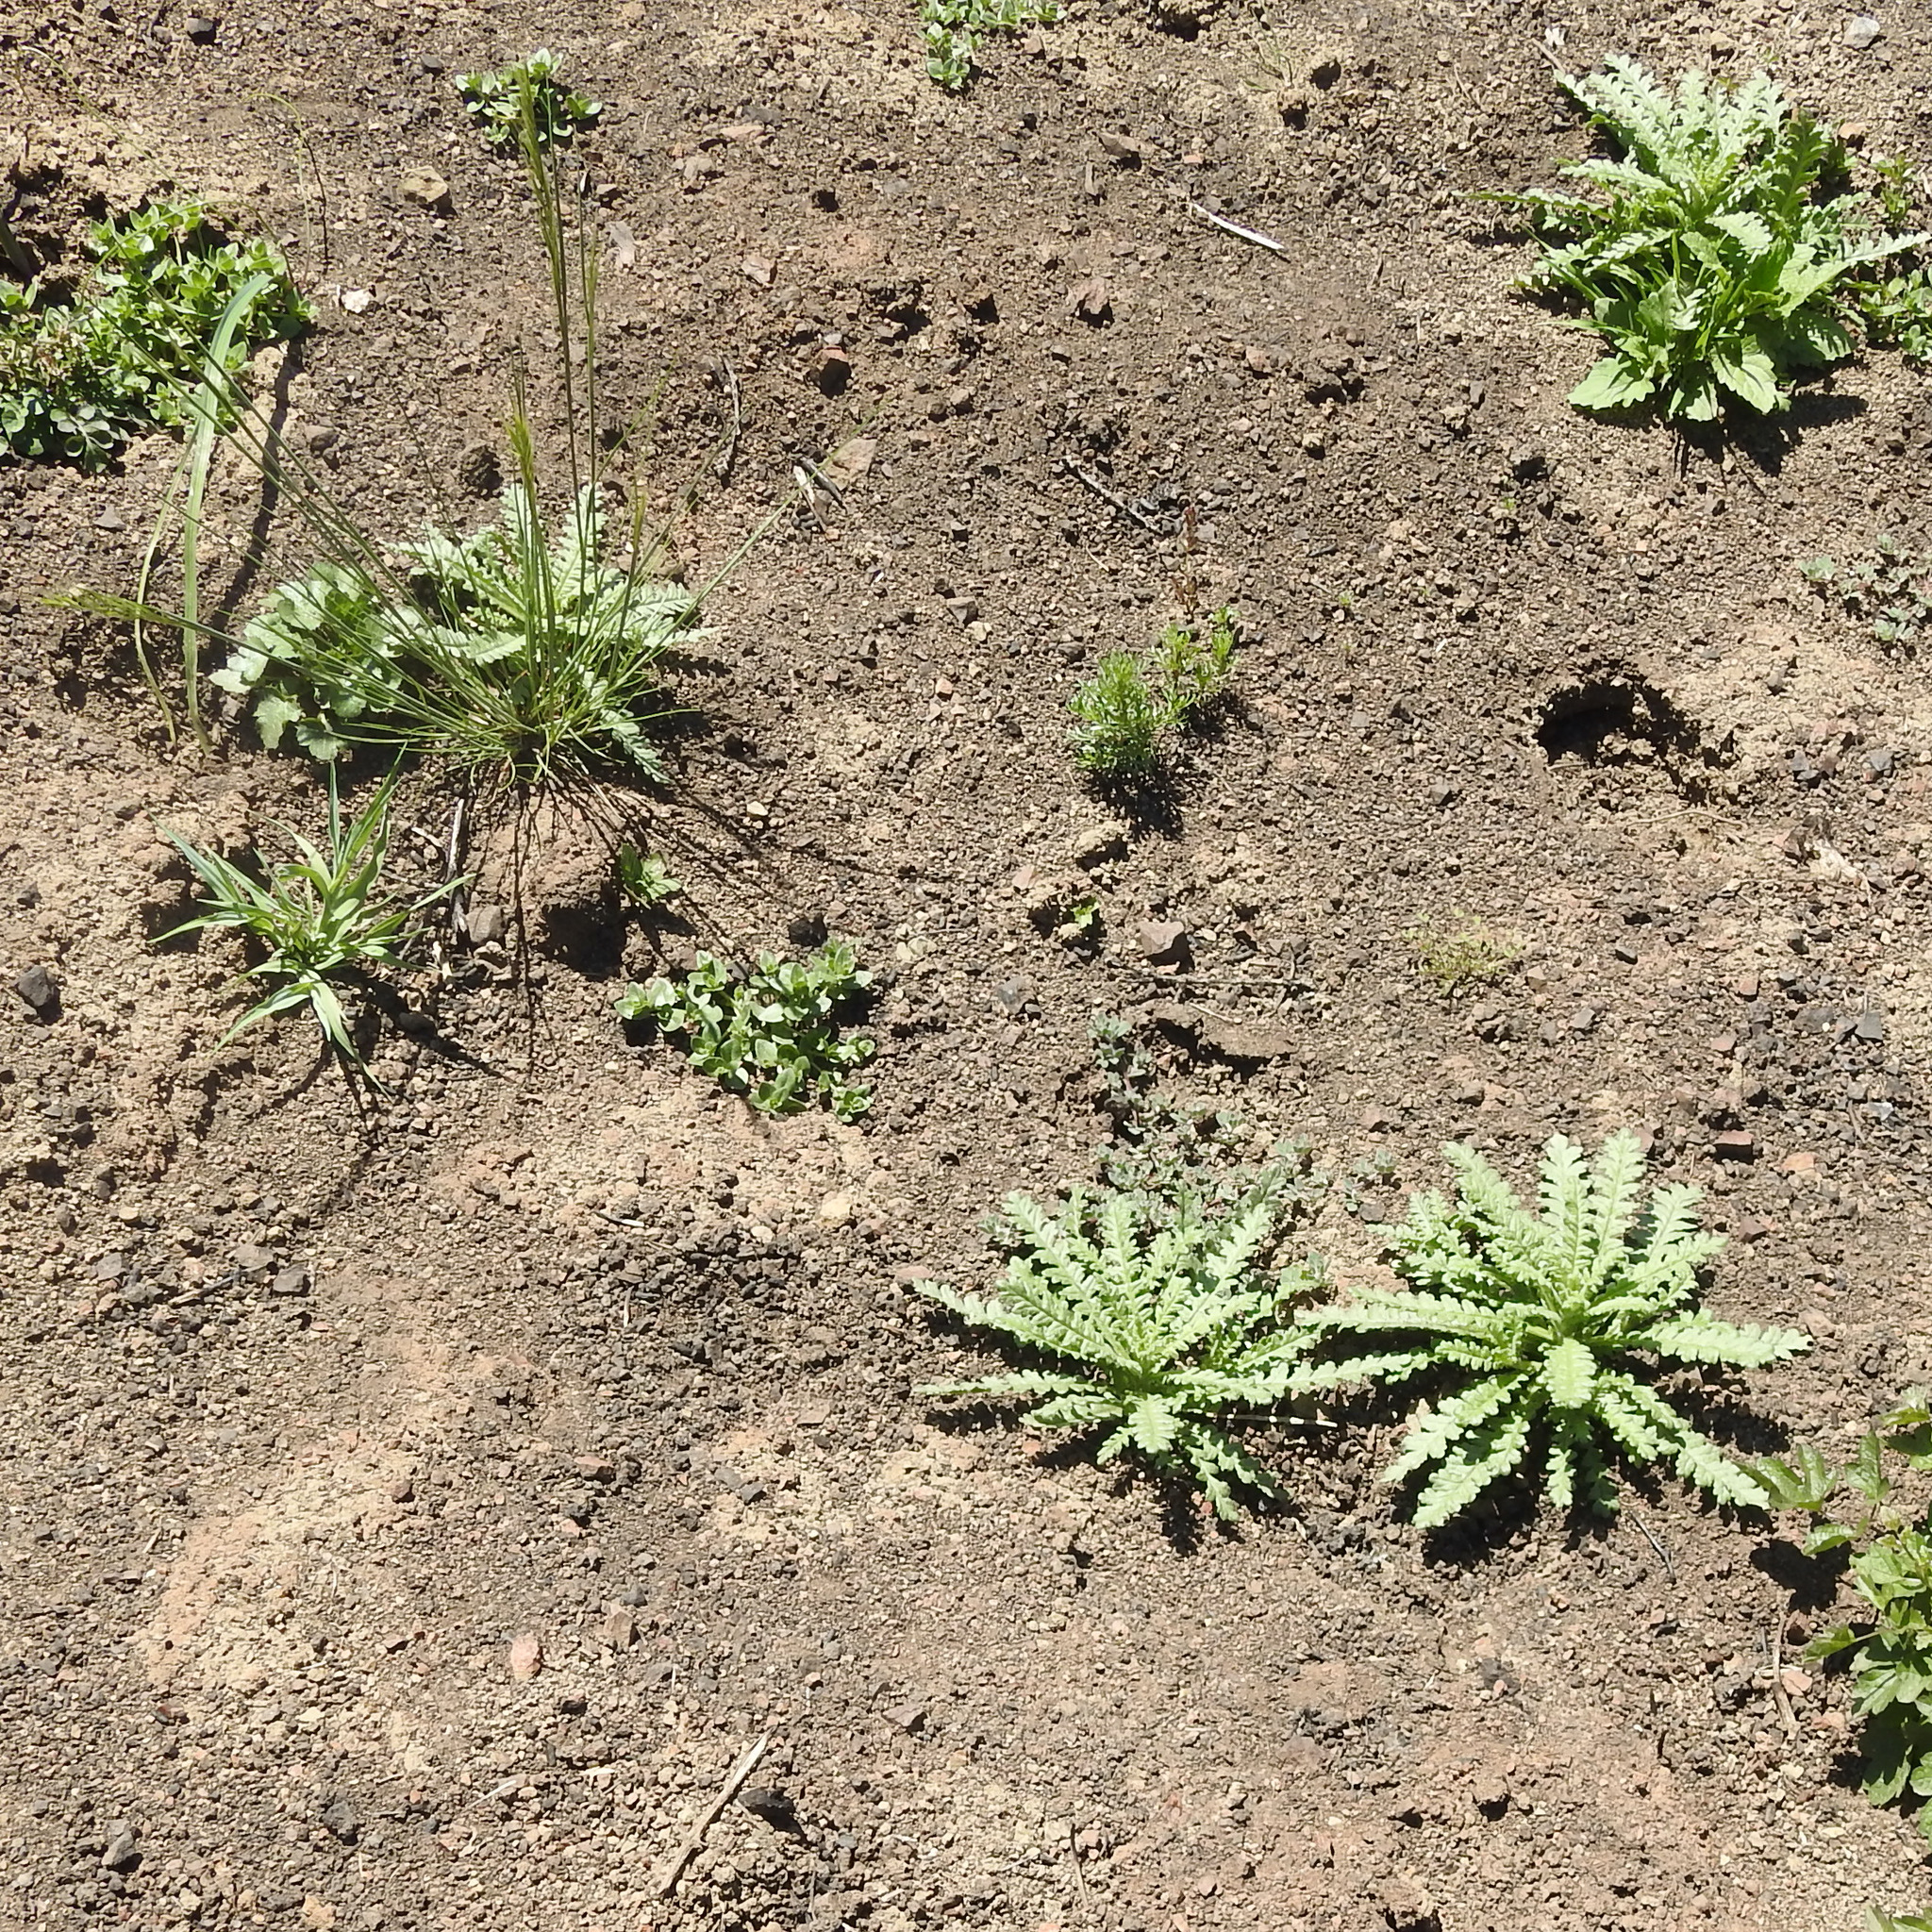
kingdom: Plantae
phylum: Tracheophyta
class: Magnoliopsida
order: Boraginales
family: Hydrophyllaceae
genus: Emmenanthe
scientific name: Emmenanthe penduliflora
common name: Whispering-bells
